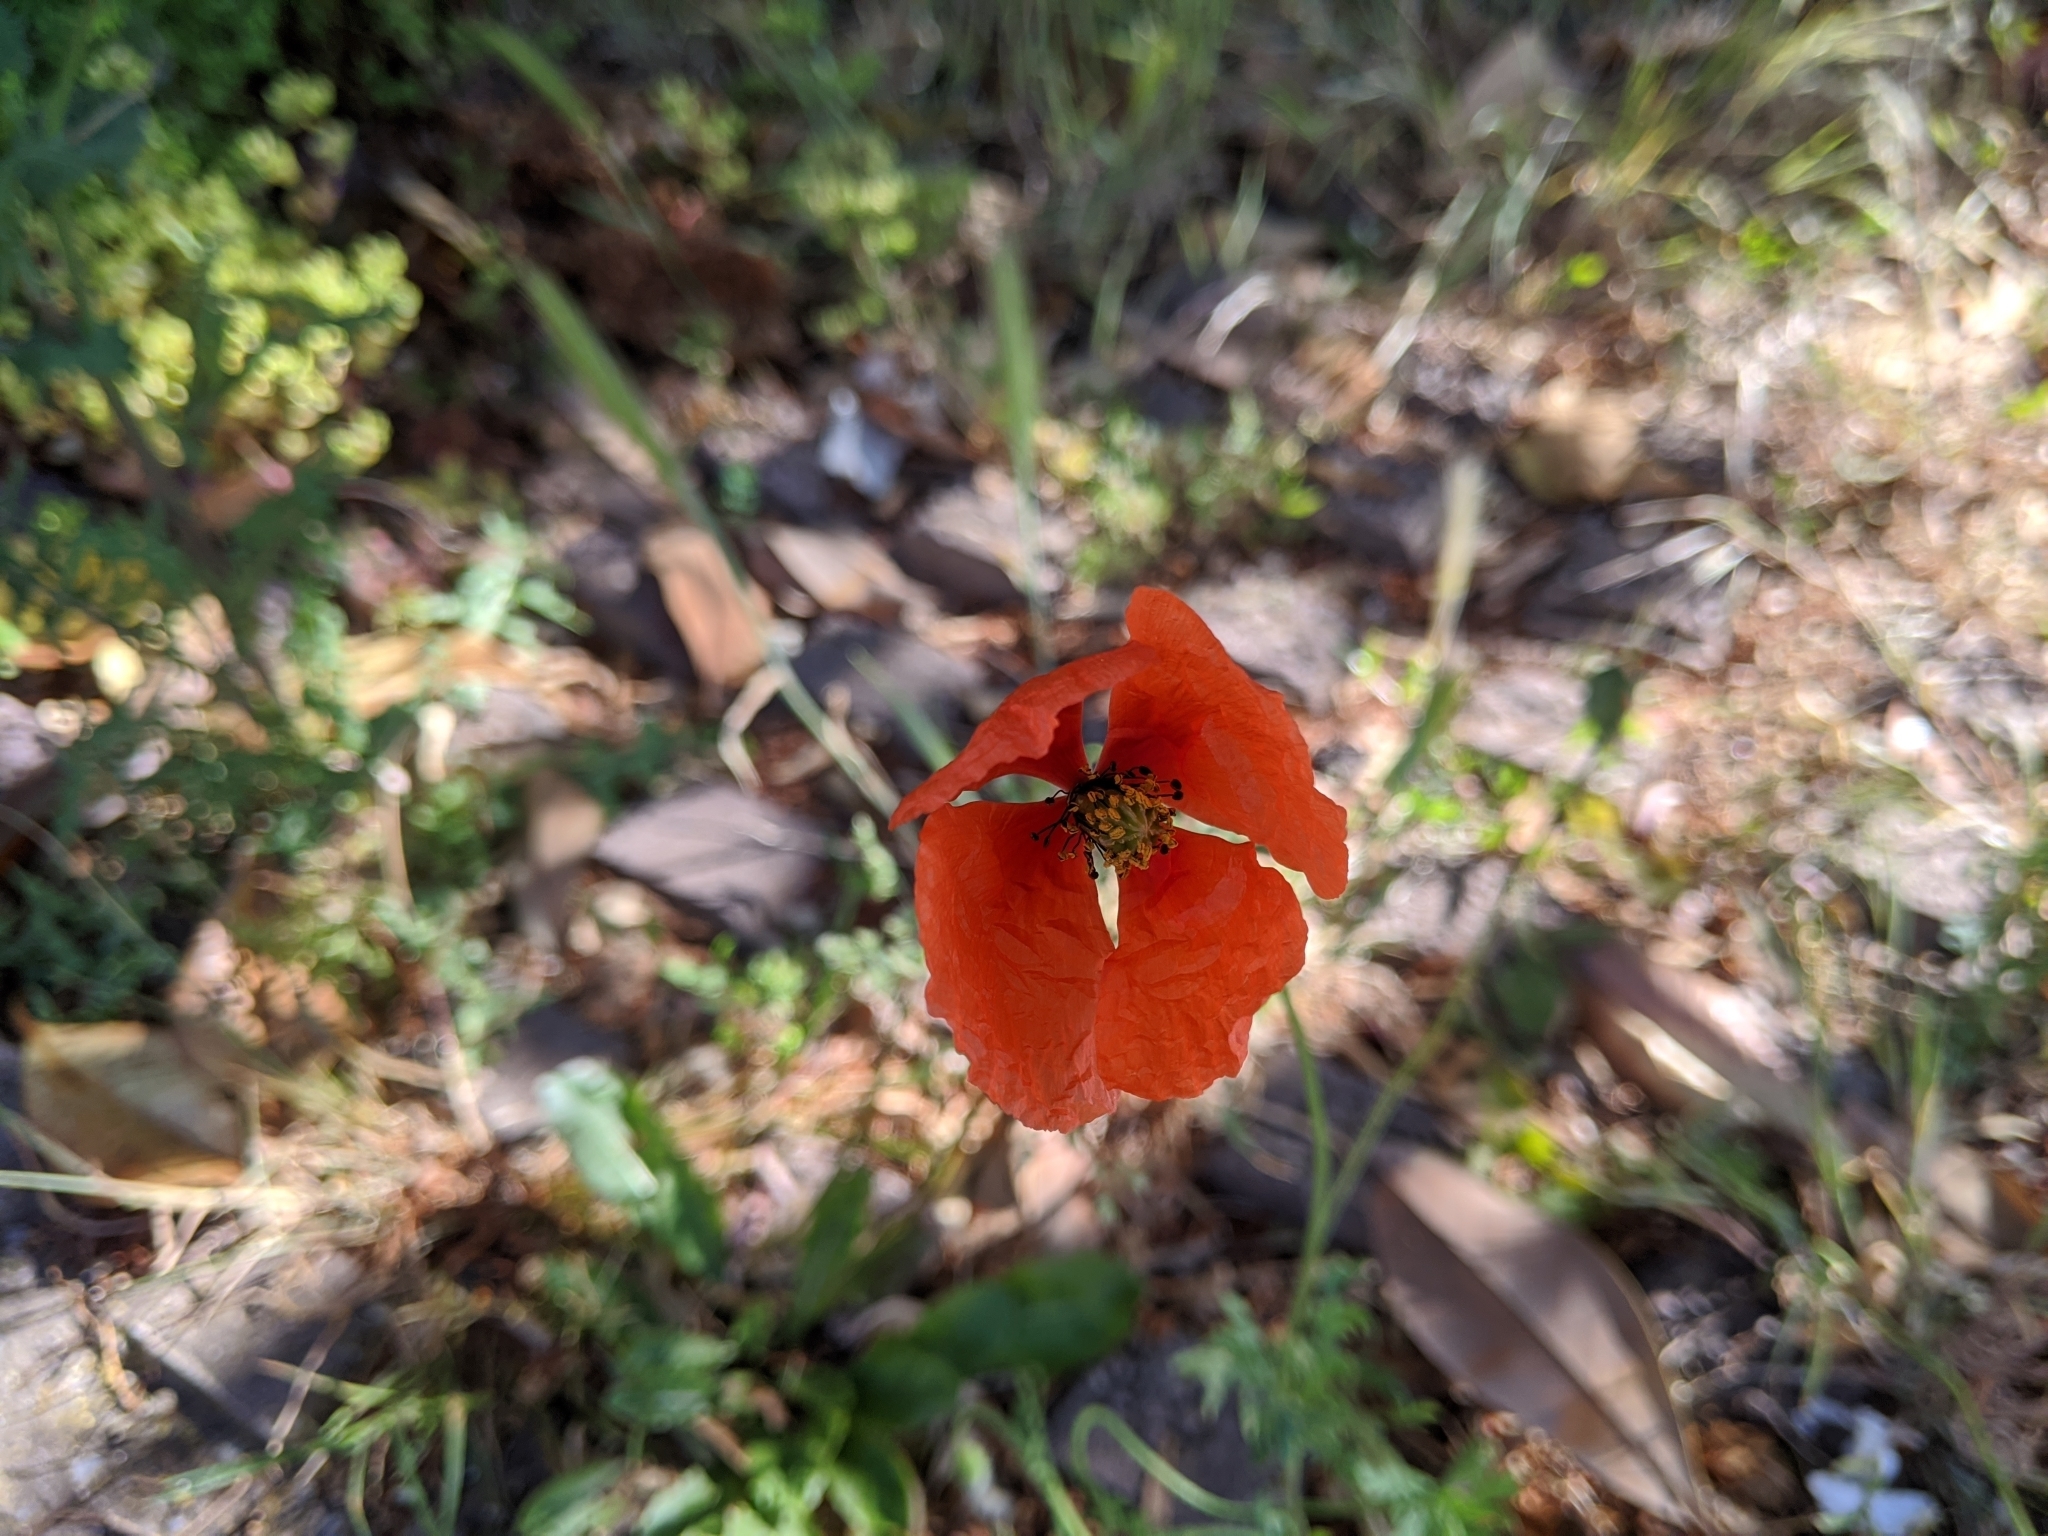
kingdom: Plantae
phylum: Tracheophyta
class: Magnoliopsida
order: Ranunculales
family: Papaveraceae
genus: Papaver
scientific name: Papaver dubium
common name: Long-headed poppy
